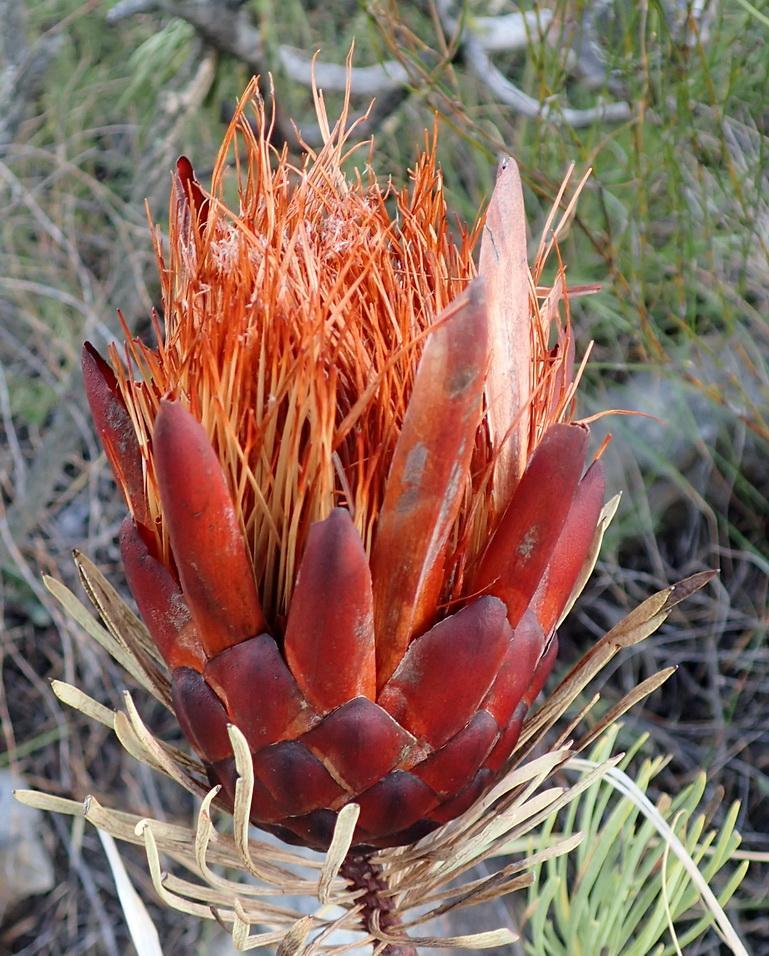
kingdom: Plantae
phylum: Tracheophyta
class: Magnoliopsida
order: Proteales
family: Proteaceae
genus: Protea
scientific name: Protea aristata
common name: Ladismith sugarbush
